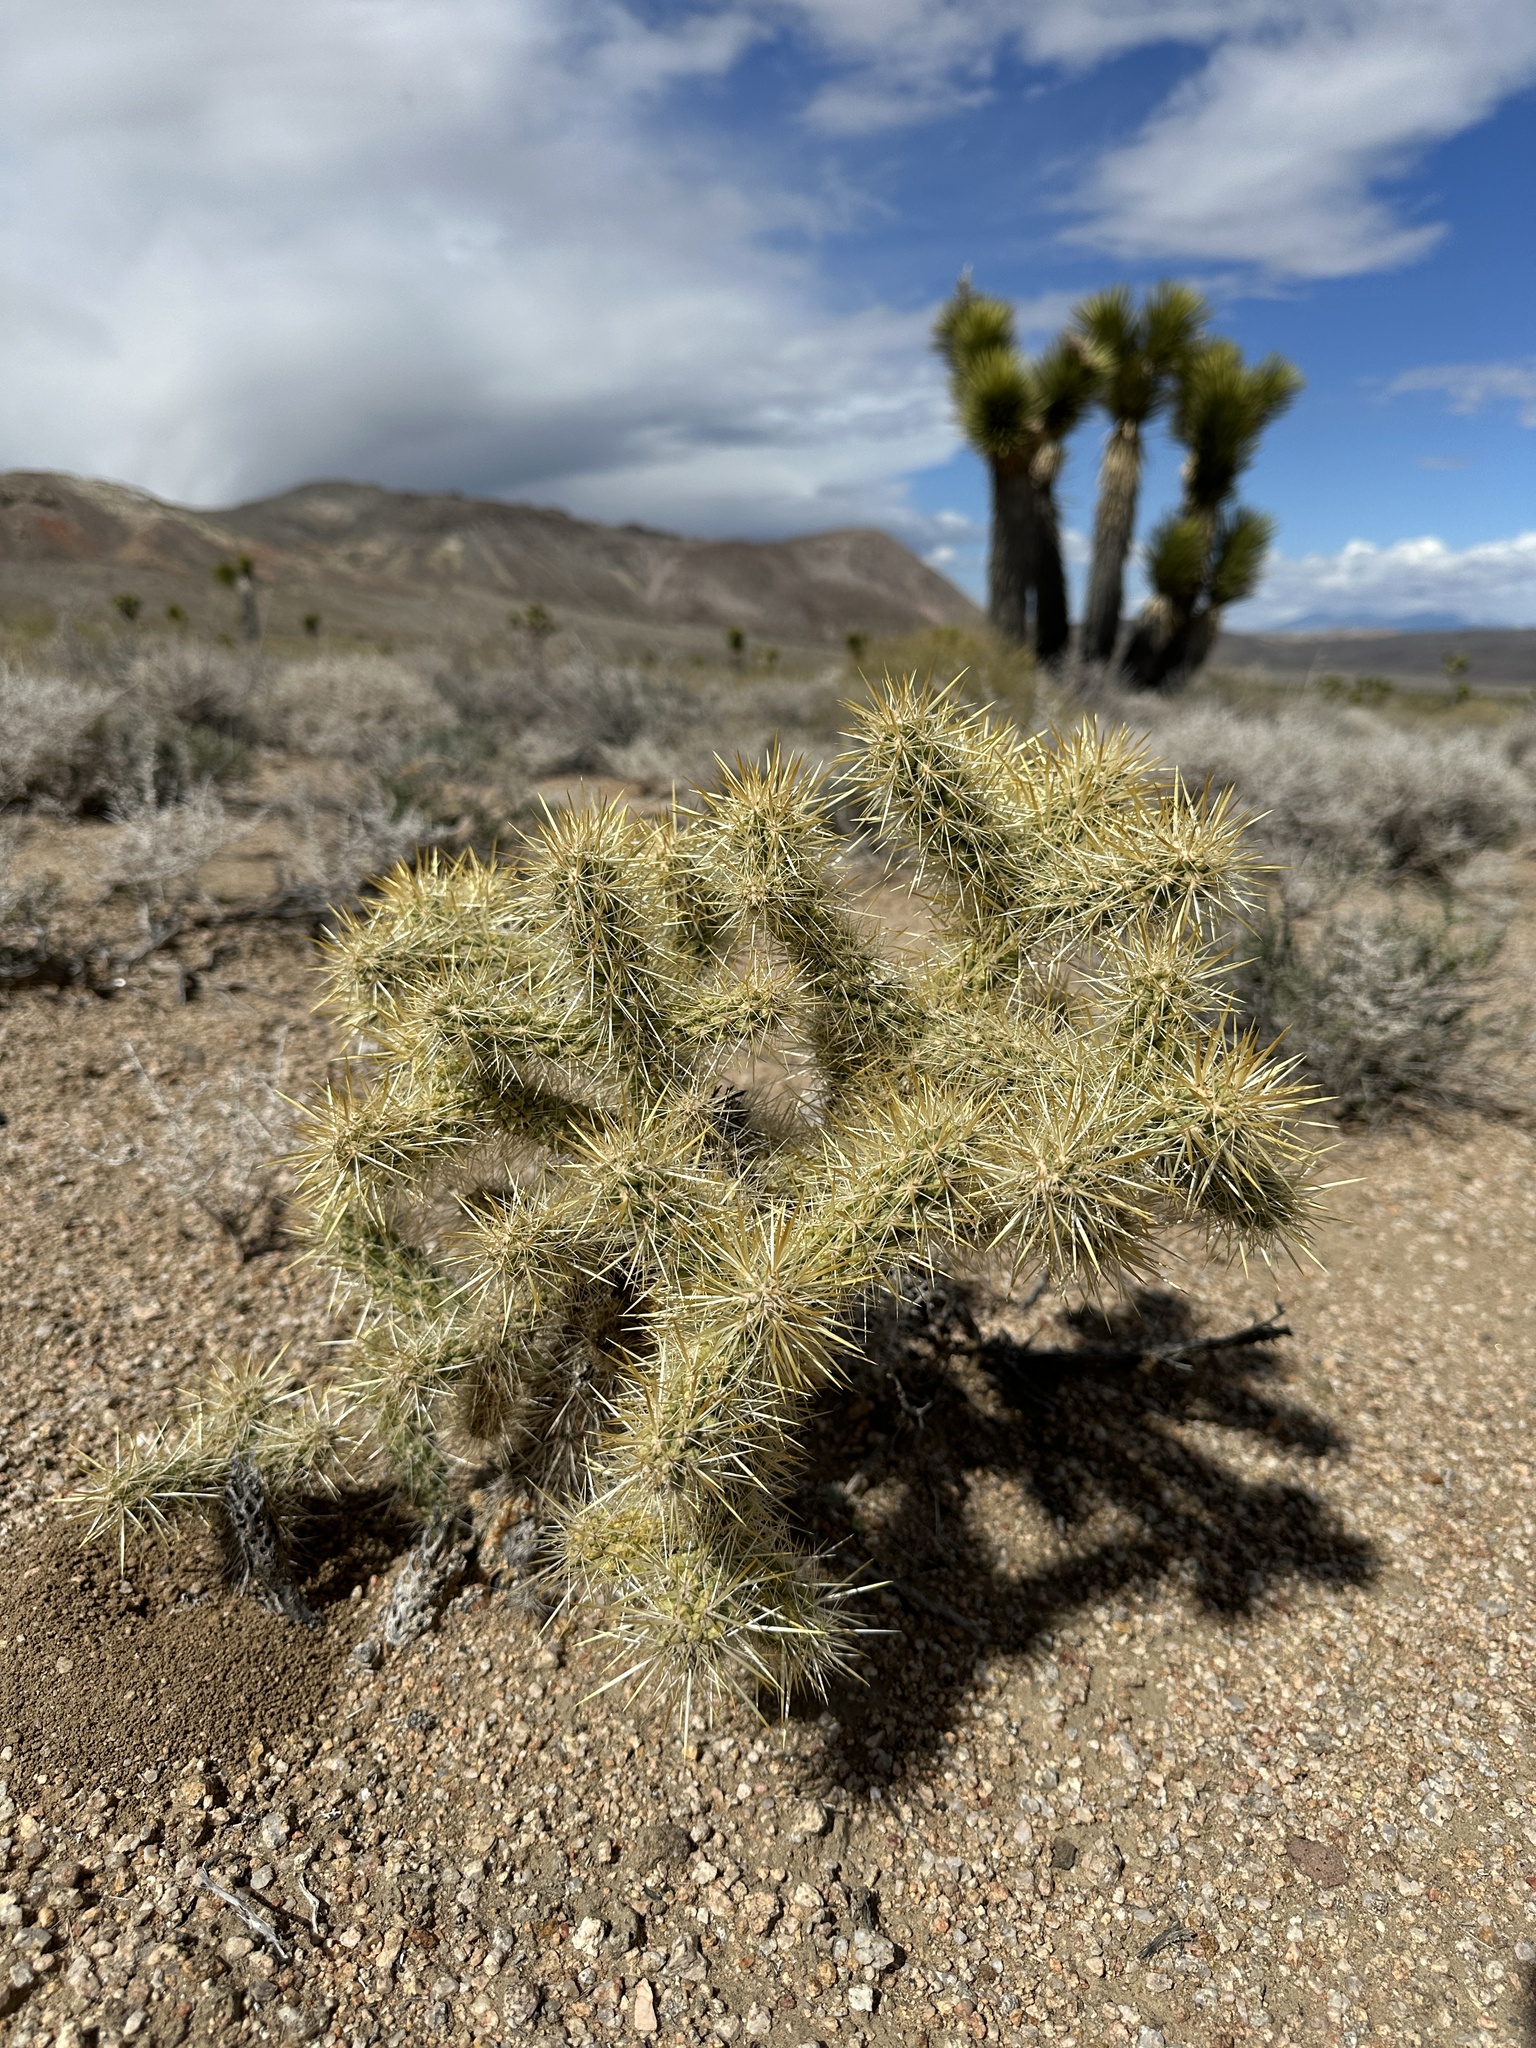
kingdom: Plantae
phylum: Tracheophyta
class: Magnoliopsida
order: Caryophyllales
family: Cactaceae
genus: Cylindropuntia
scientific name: Cylindropuntia echinocarpa
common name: Ground cholla
